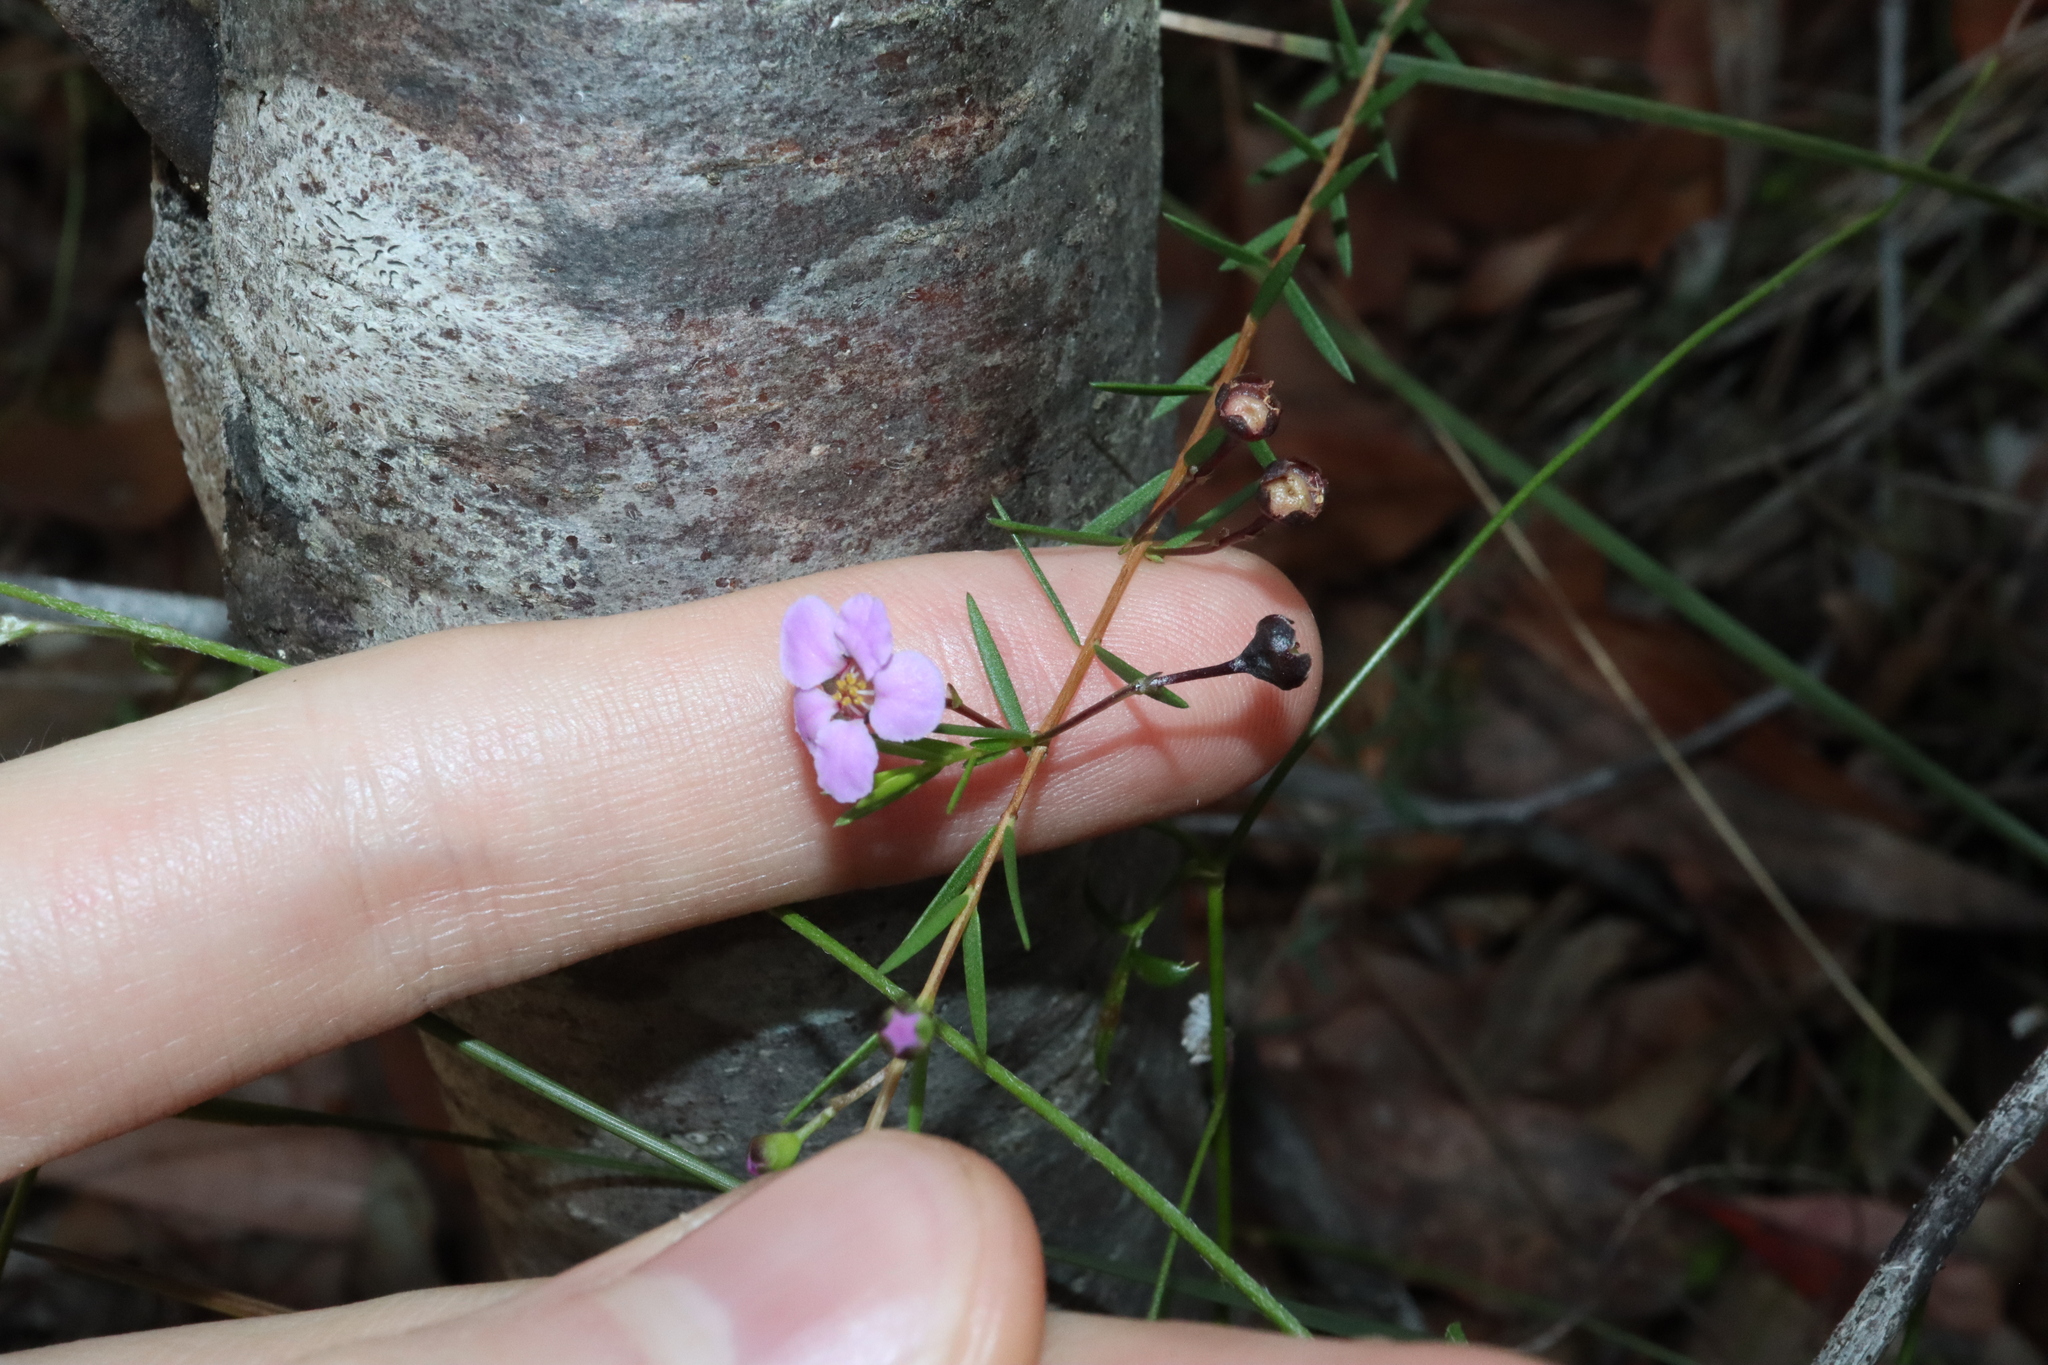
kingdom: Plantae
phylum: Tracheophyta
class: Magnoliopsida
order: Myrtales
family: Myrtaceae
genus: Euryomyrtus
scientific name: Euryomyrtus ramosissima
